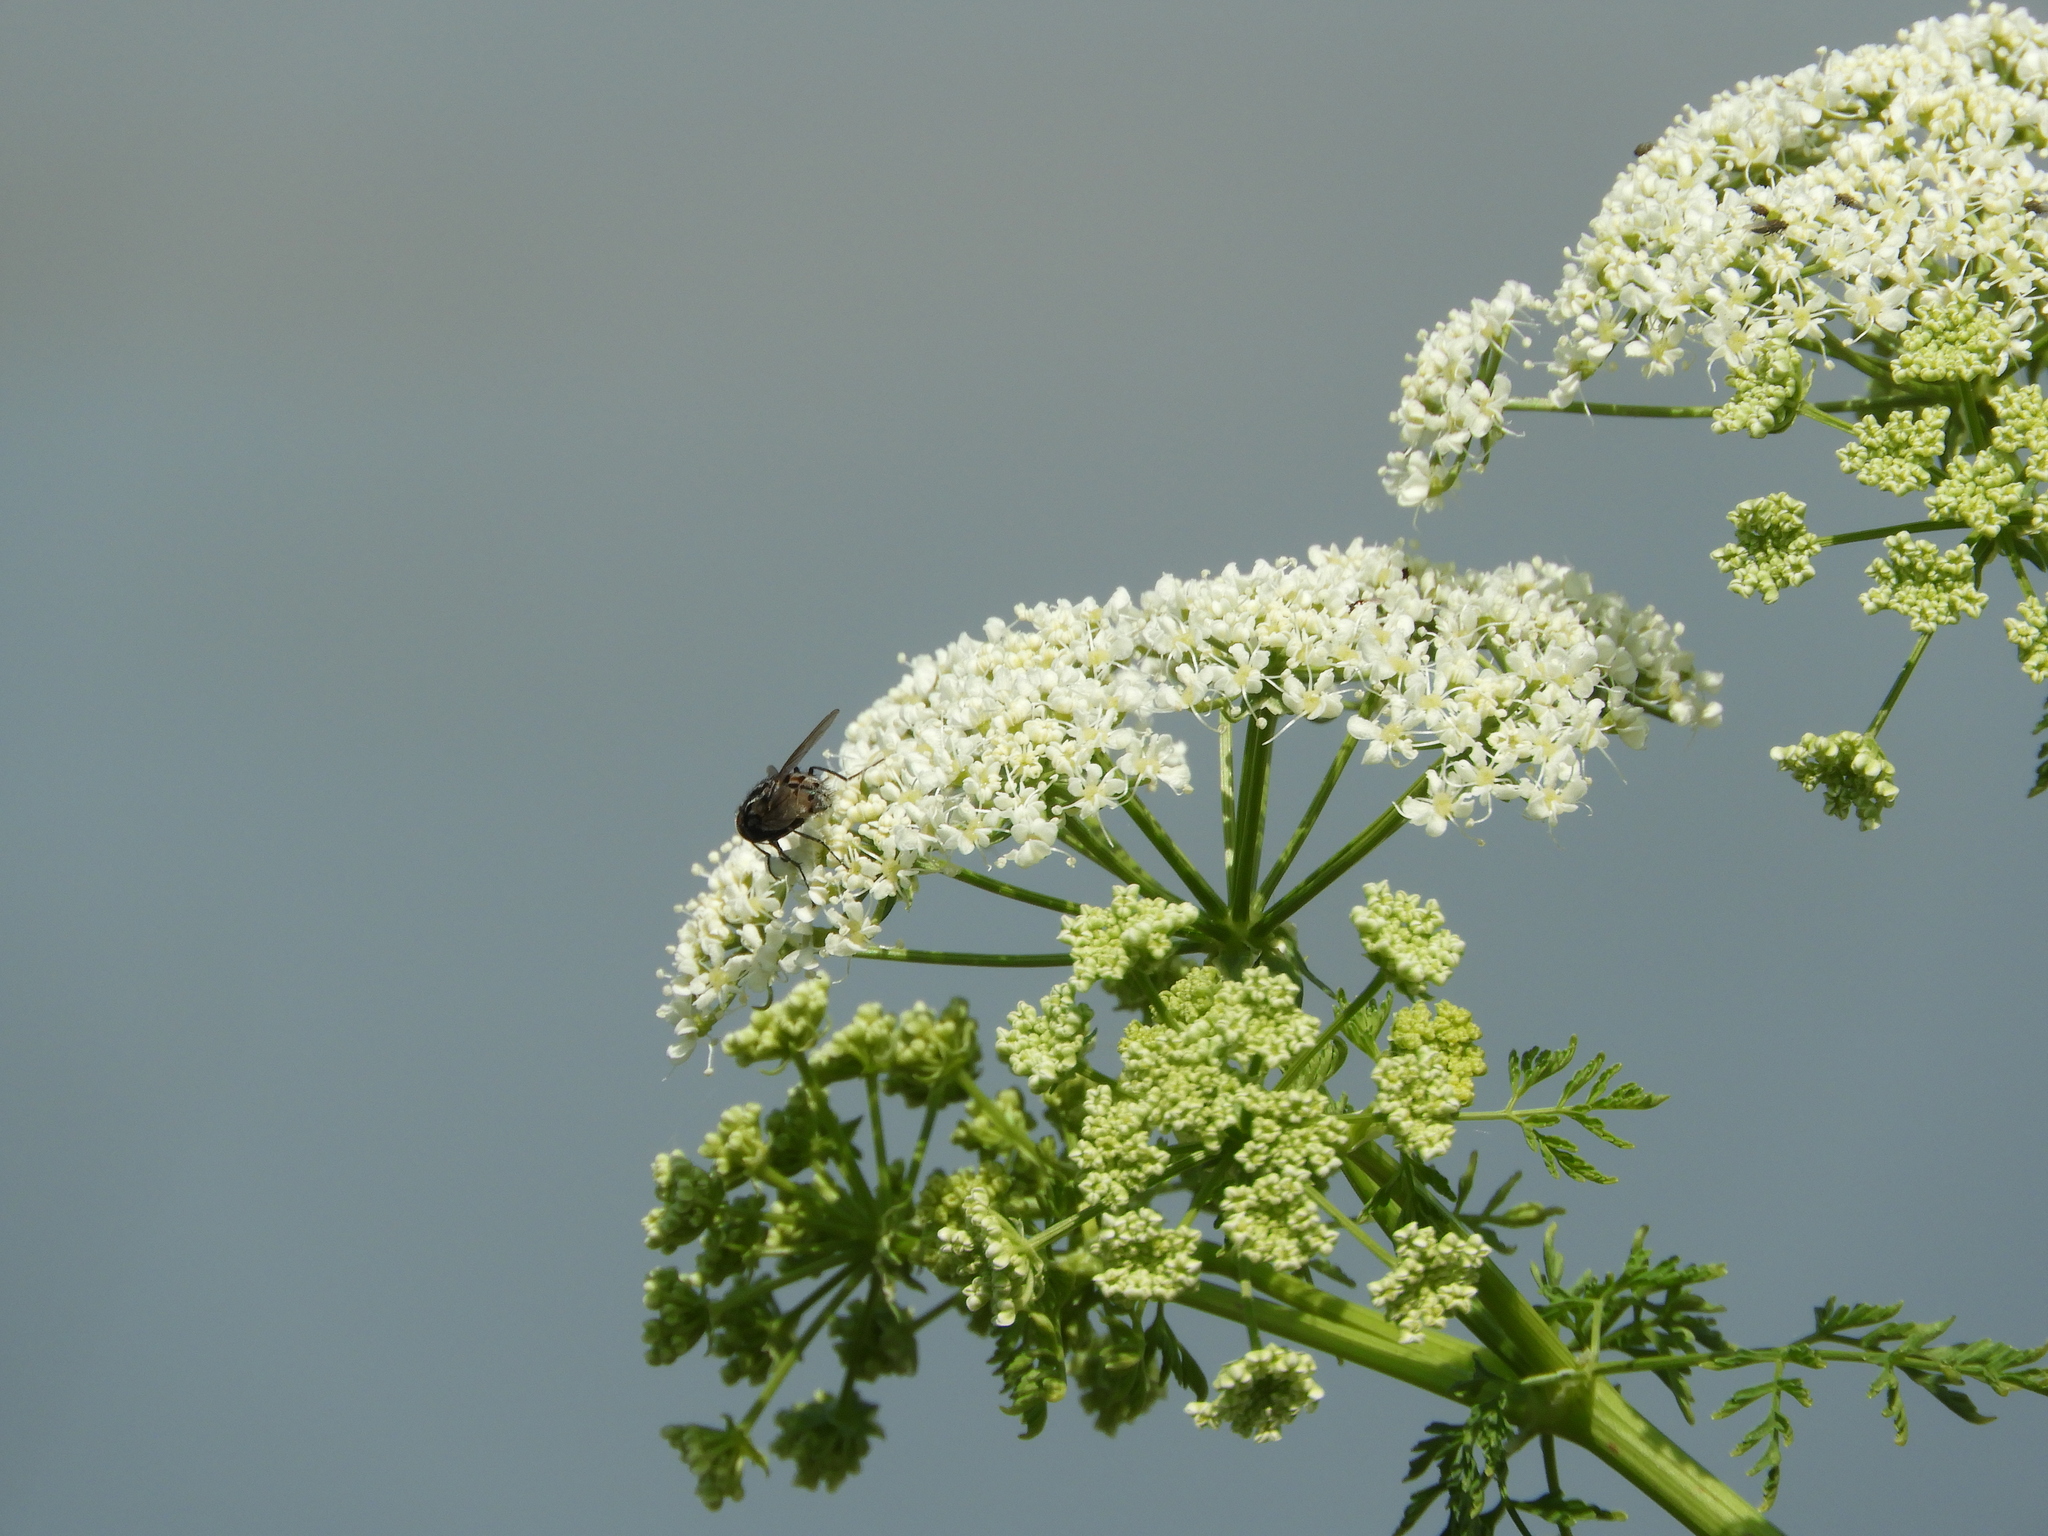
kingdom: Plantae
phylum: Tracheophyta
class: Magnoliopsida
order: Apiales
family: Apiaceae
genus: Conium
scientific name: Conium maculatum
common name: Hemlock
